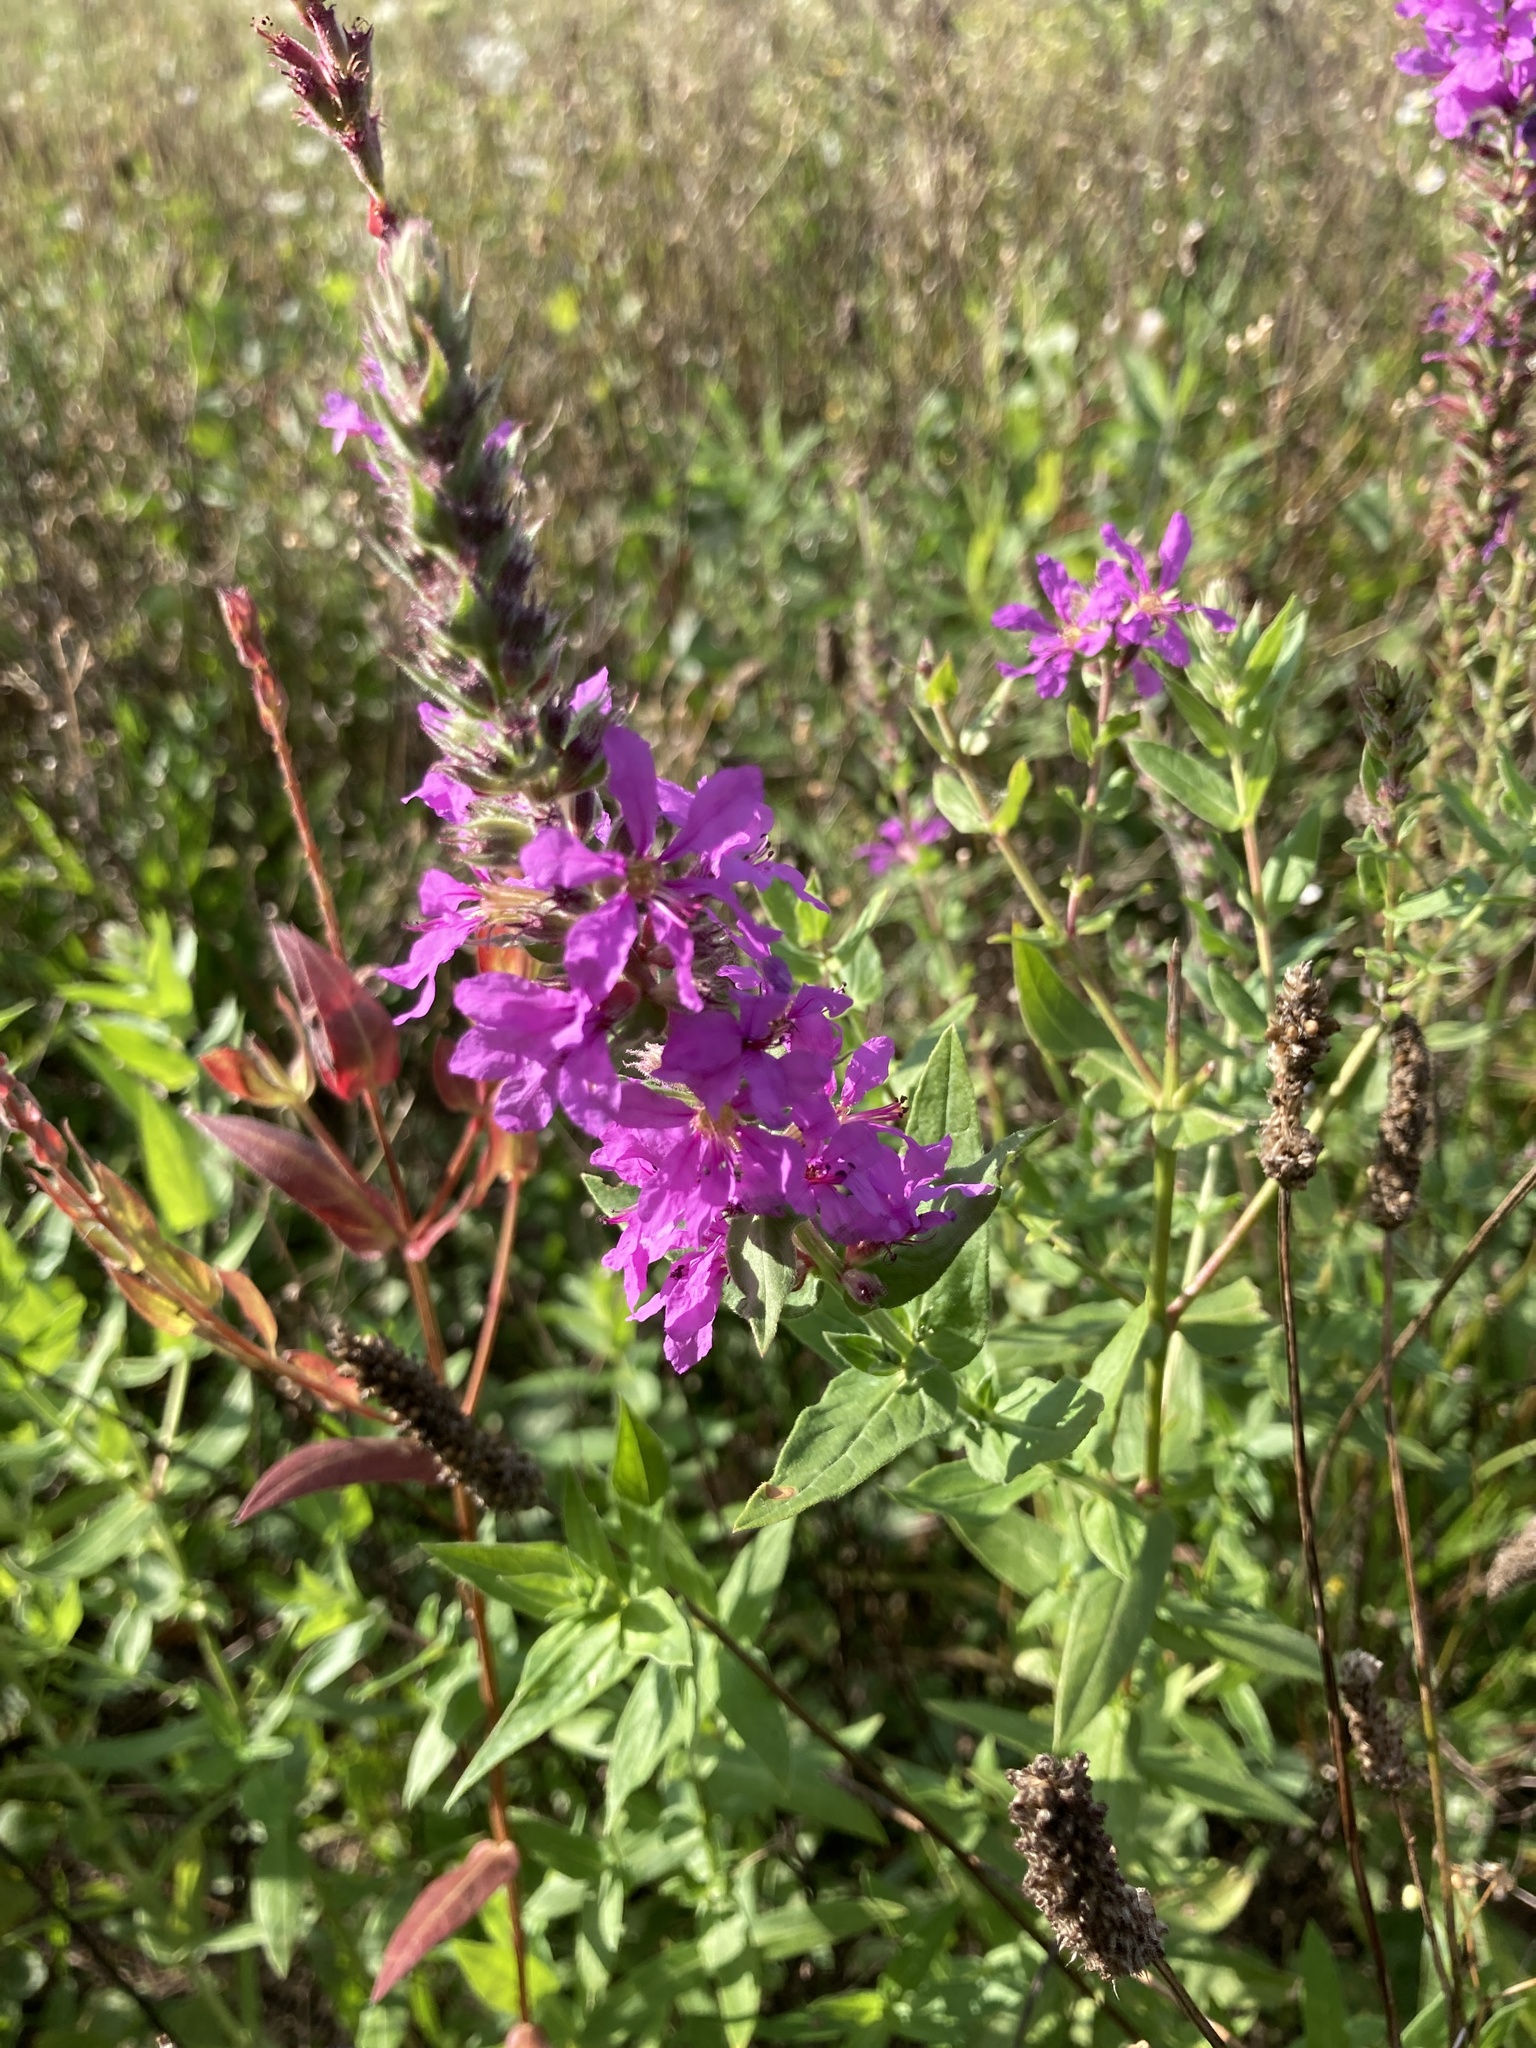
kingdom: Plantae
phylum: Tracheophyta
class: Magnoliopsida
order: Myrtales
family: Lythraceae
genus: Lythrum
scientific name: Lythrum salicaria
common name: Purple loosestrife
